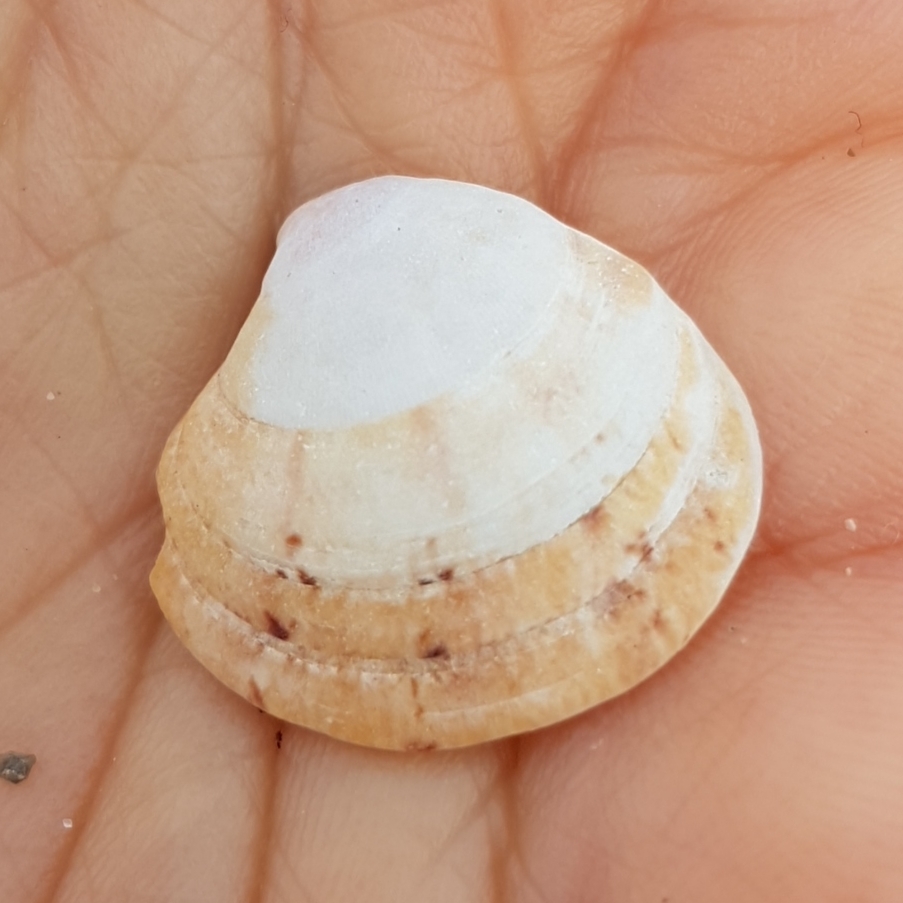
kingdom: Animalia
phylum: Mollusca
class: Bivalvia
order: Venerida
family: Veneridae
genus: Clausinella
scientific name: Clausinella fasciata
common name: Banded venus
